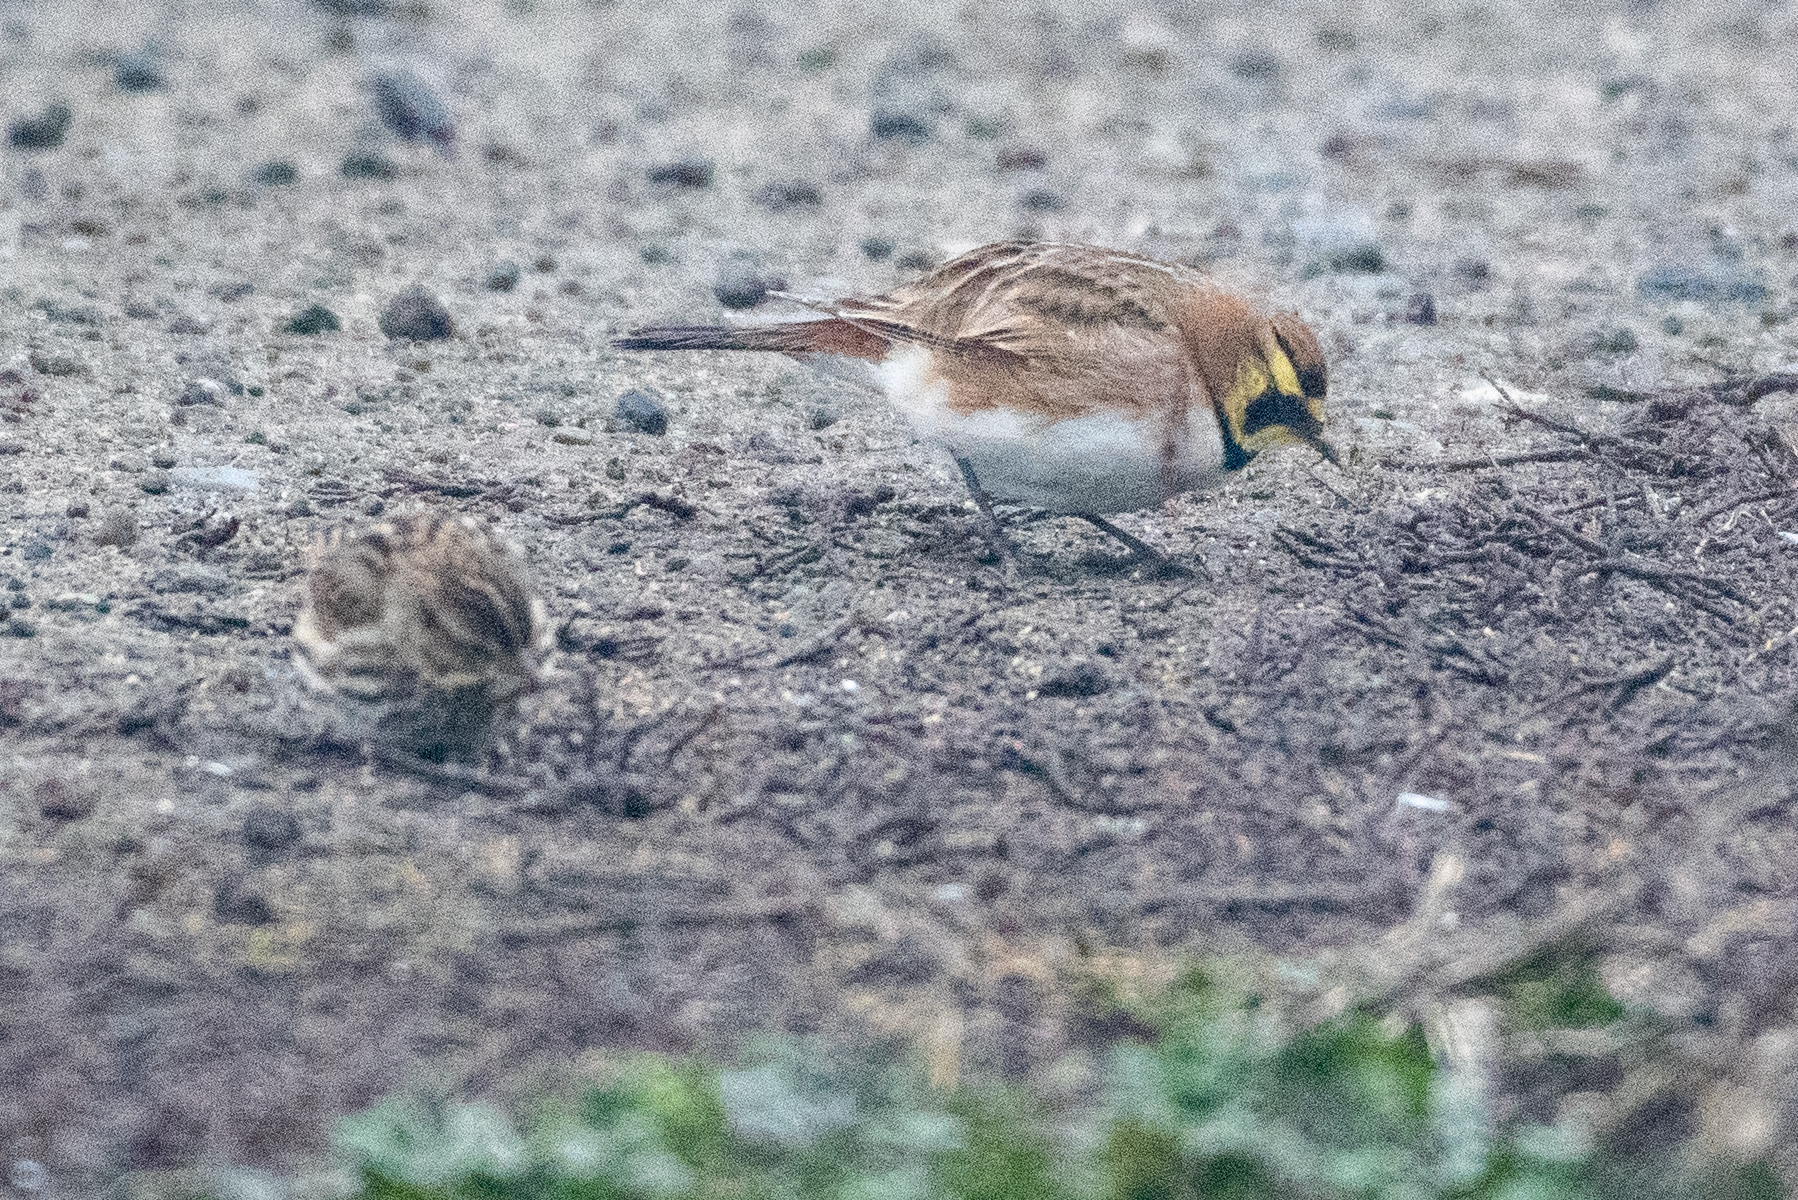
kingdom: Animalia
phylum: Chordata
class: Aves
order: Passeriformes
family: Alaudidae
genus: Eremophila
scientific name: Eremophila alpestris
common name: Horned lark
